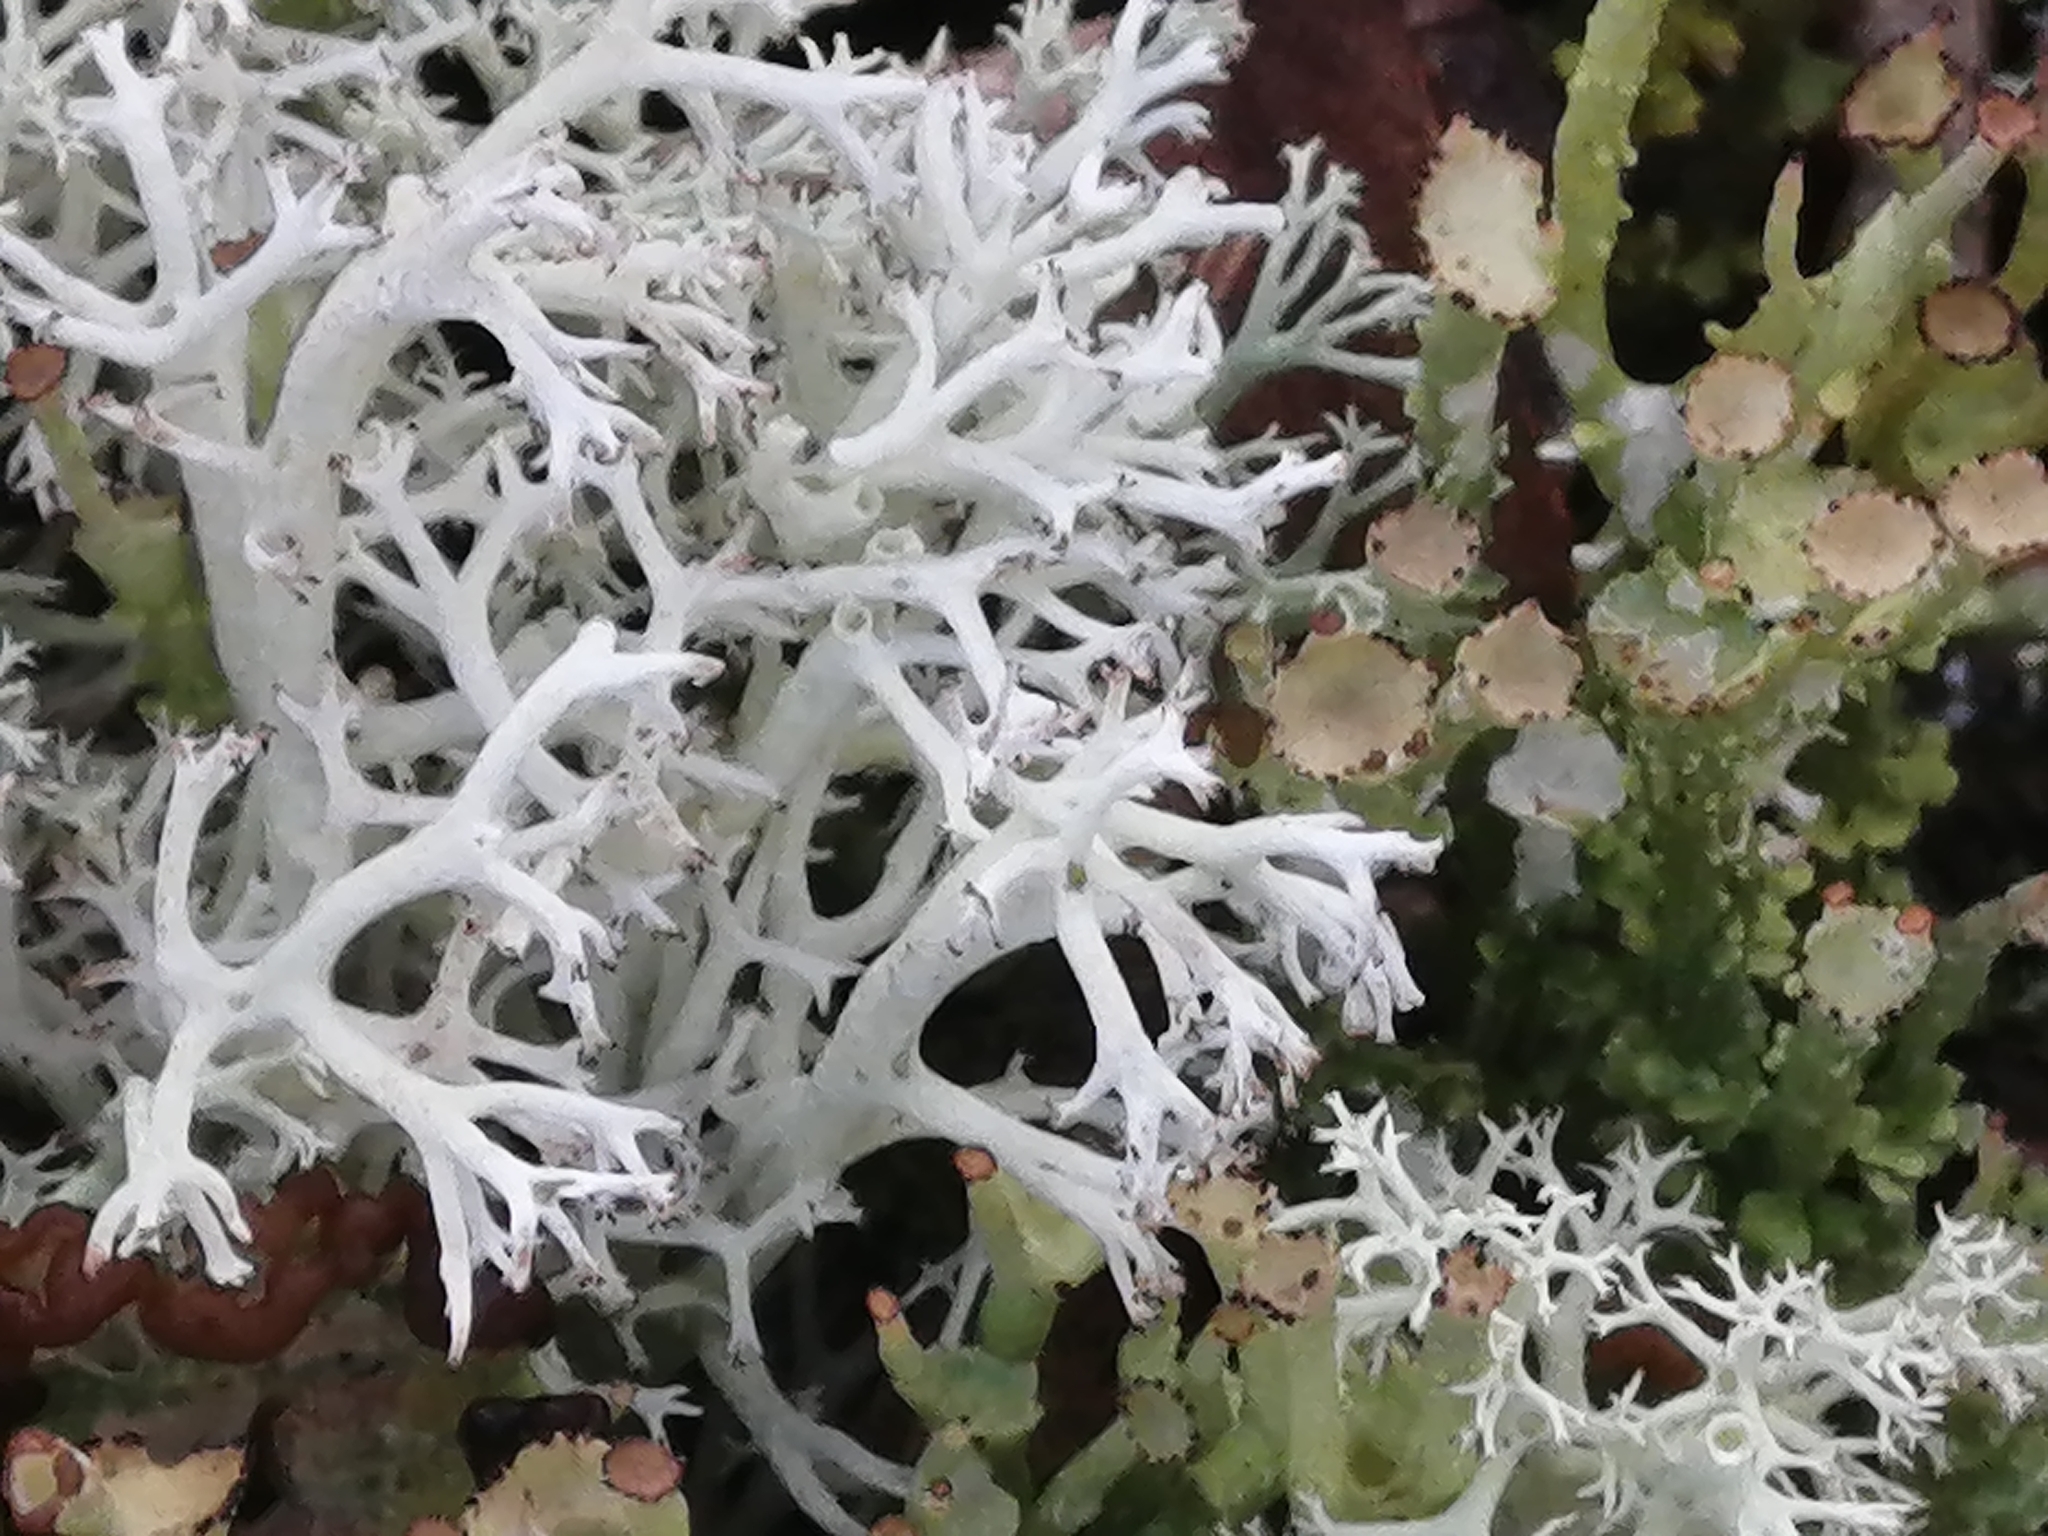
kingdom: Fungi
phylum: Ascomycota
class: Lecanoromycetes
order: Lecanorales
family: Cladoniaceae
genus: Cladonia
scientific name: Cladonia rangiferina
